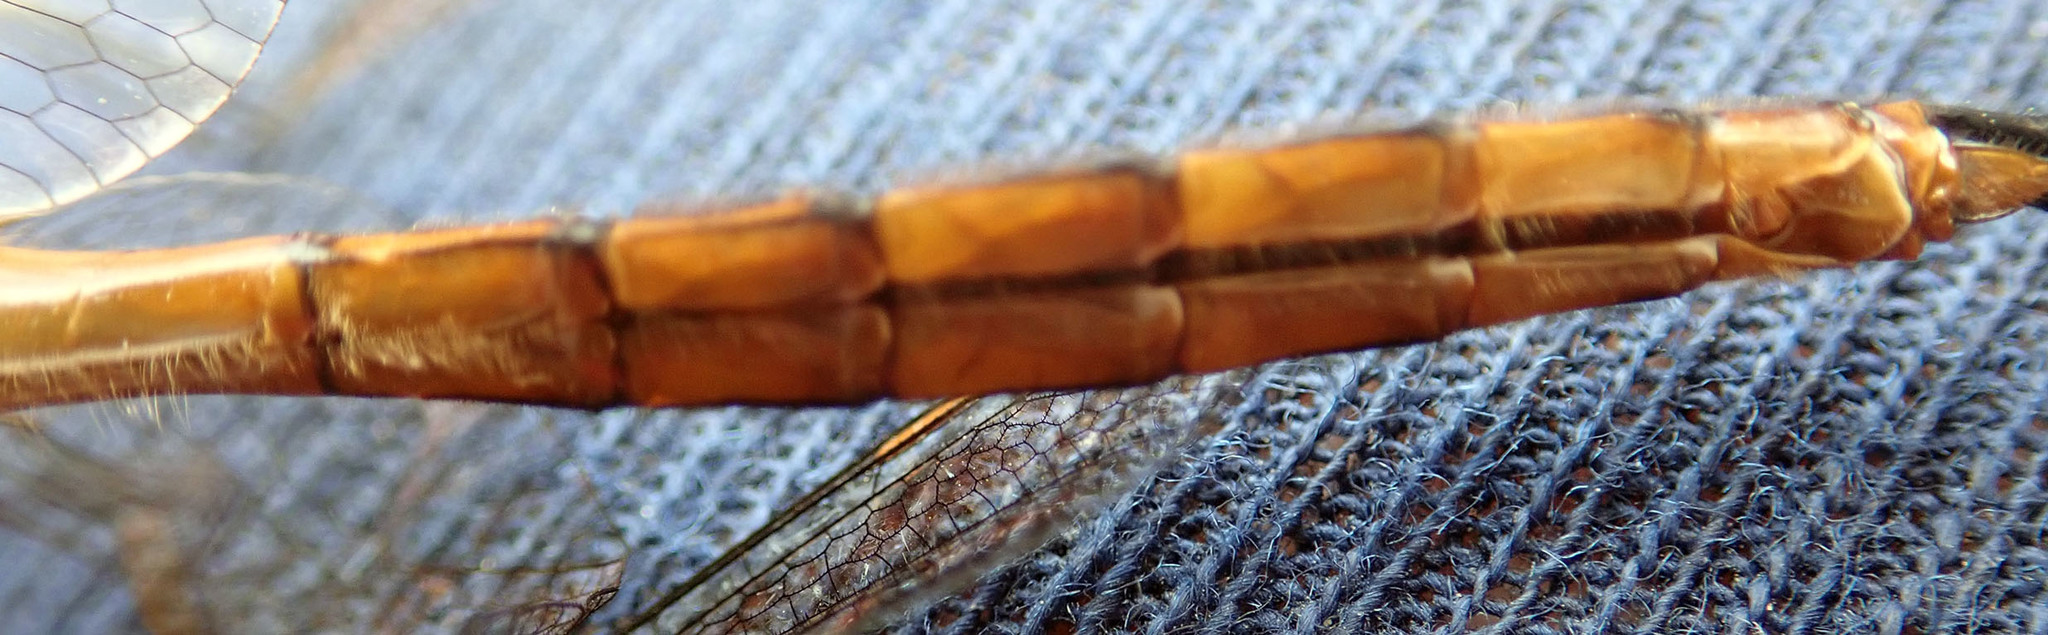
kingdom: Animalia
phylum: Arthropoda
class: Insecta
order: Odonata
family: Corduliidae
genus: Procordulia
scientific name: Procordulia smithii
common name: Ranger dragonfly
